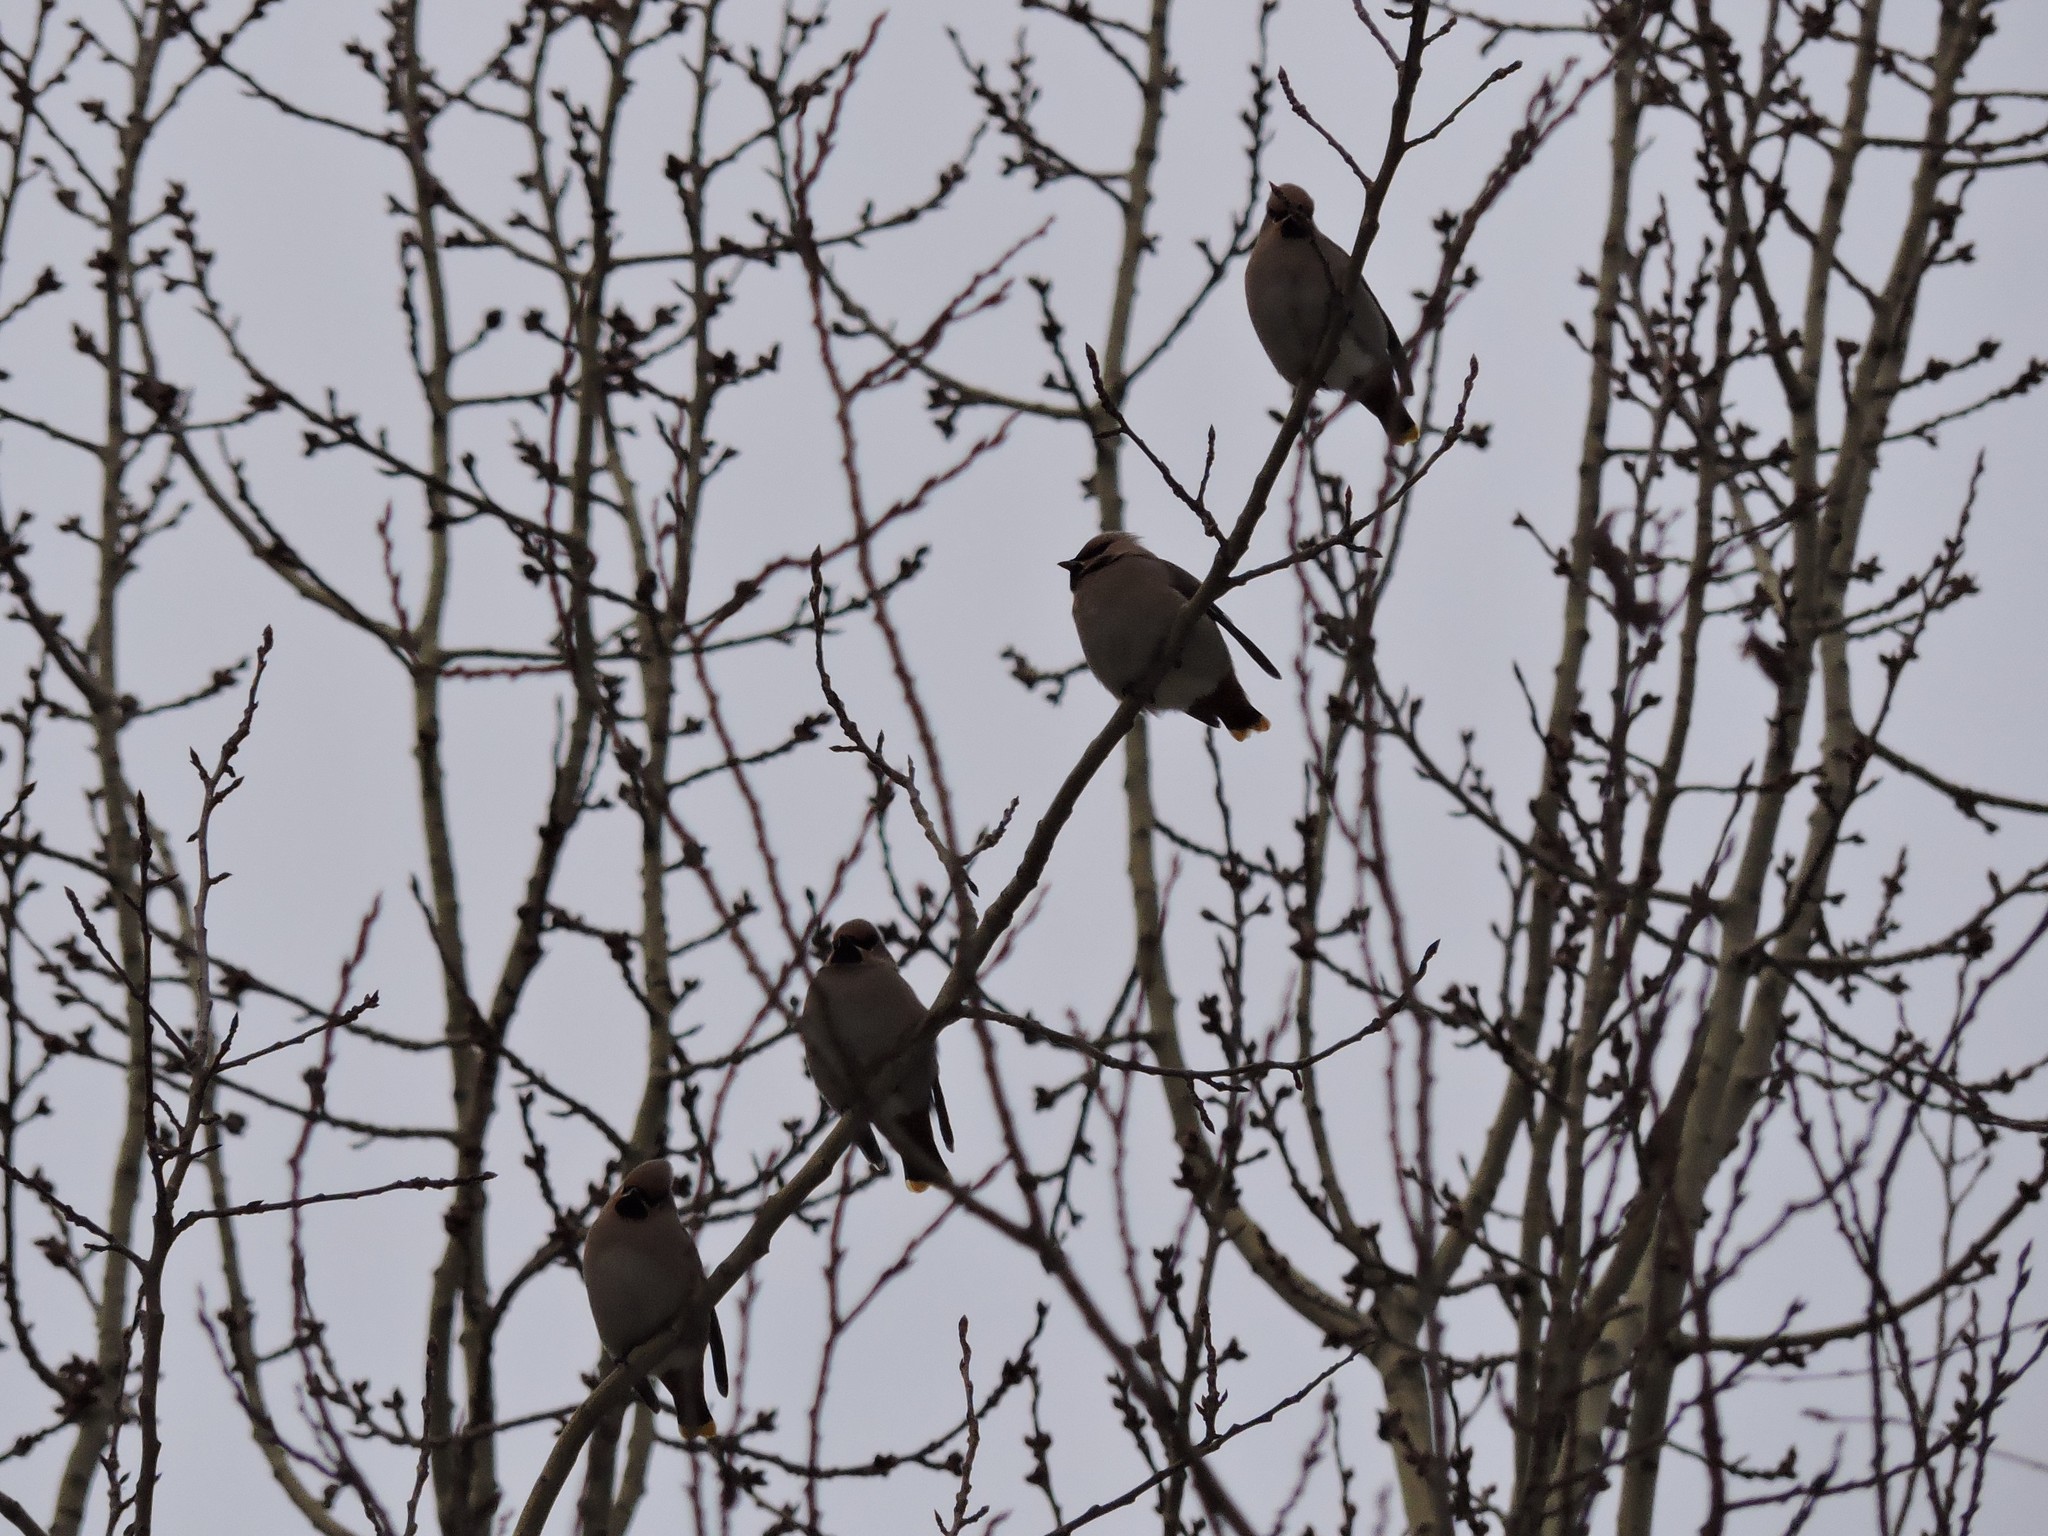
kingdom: Animalia
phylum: Chordata
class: Aves
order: Passeriformes
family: Bombycillidae
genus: Bombycilla
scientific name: Bombycilla garrulus
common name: Bohemian waxwing
